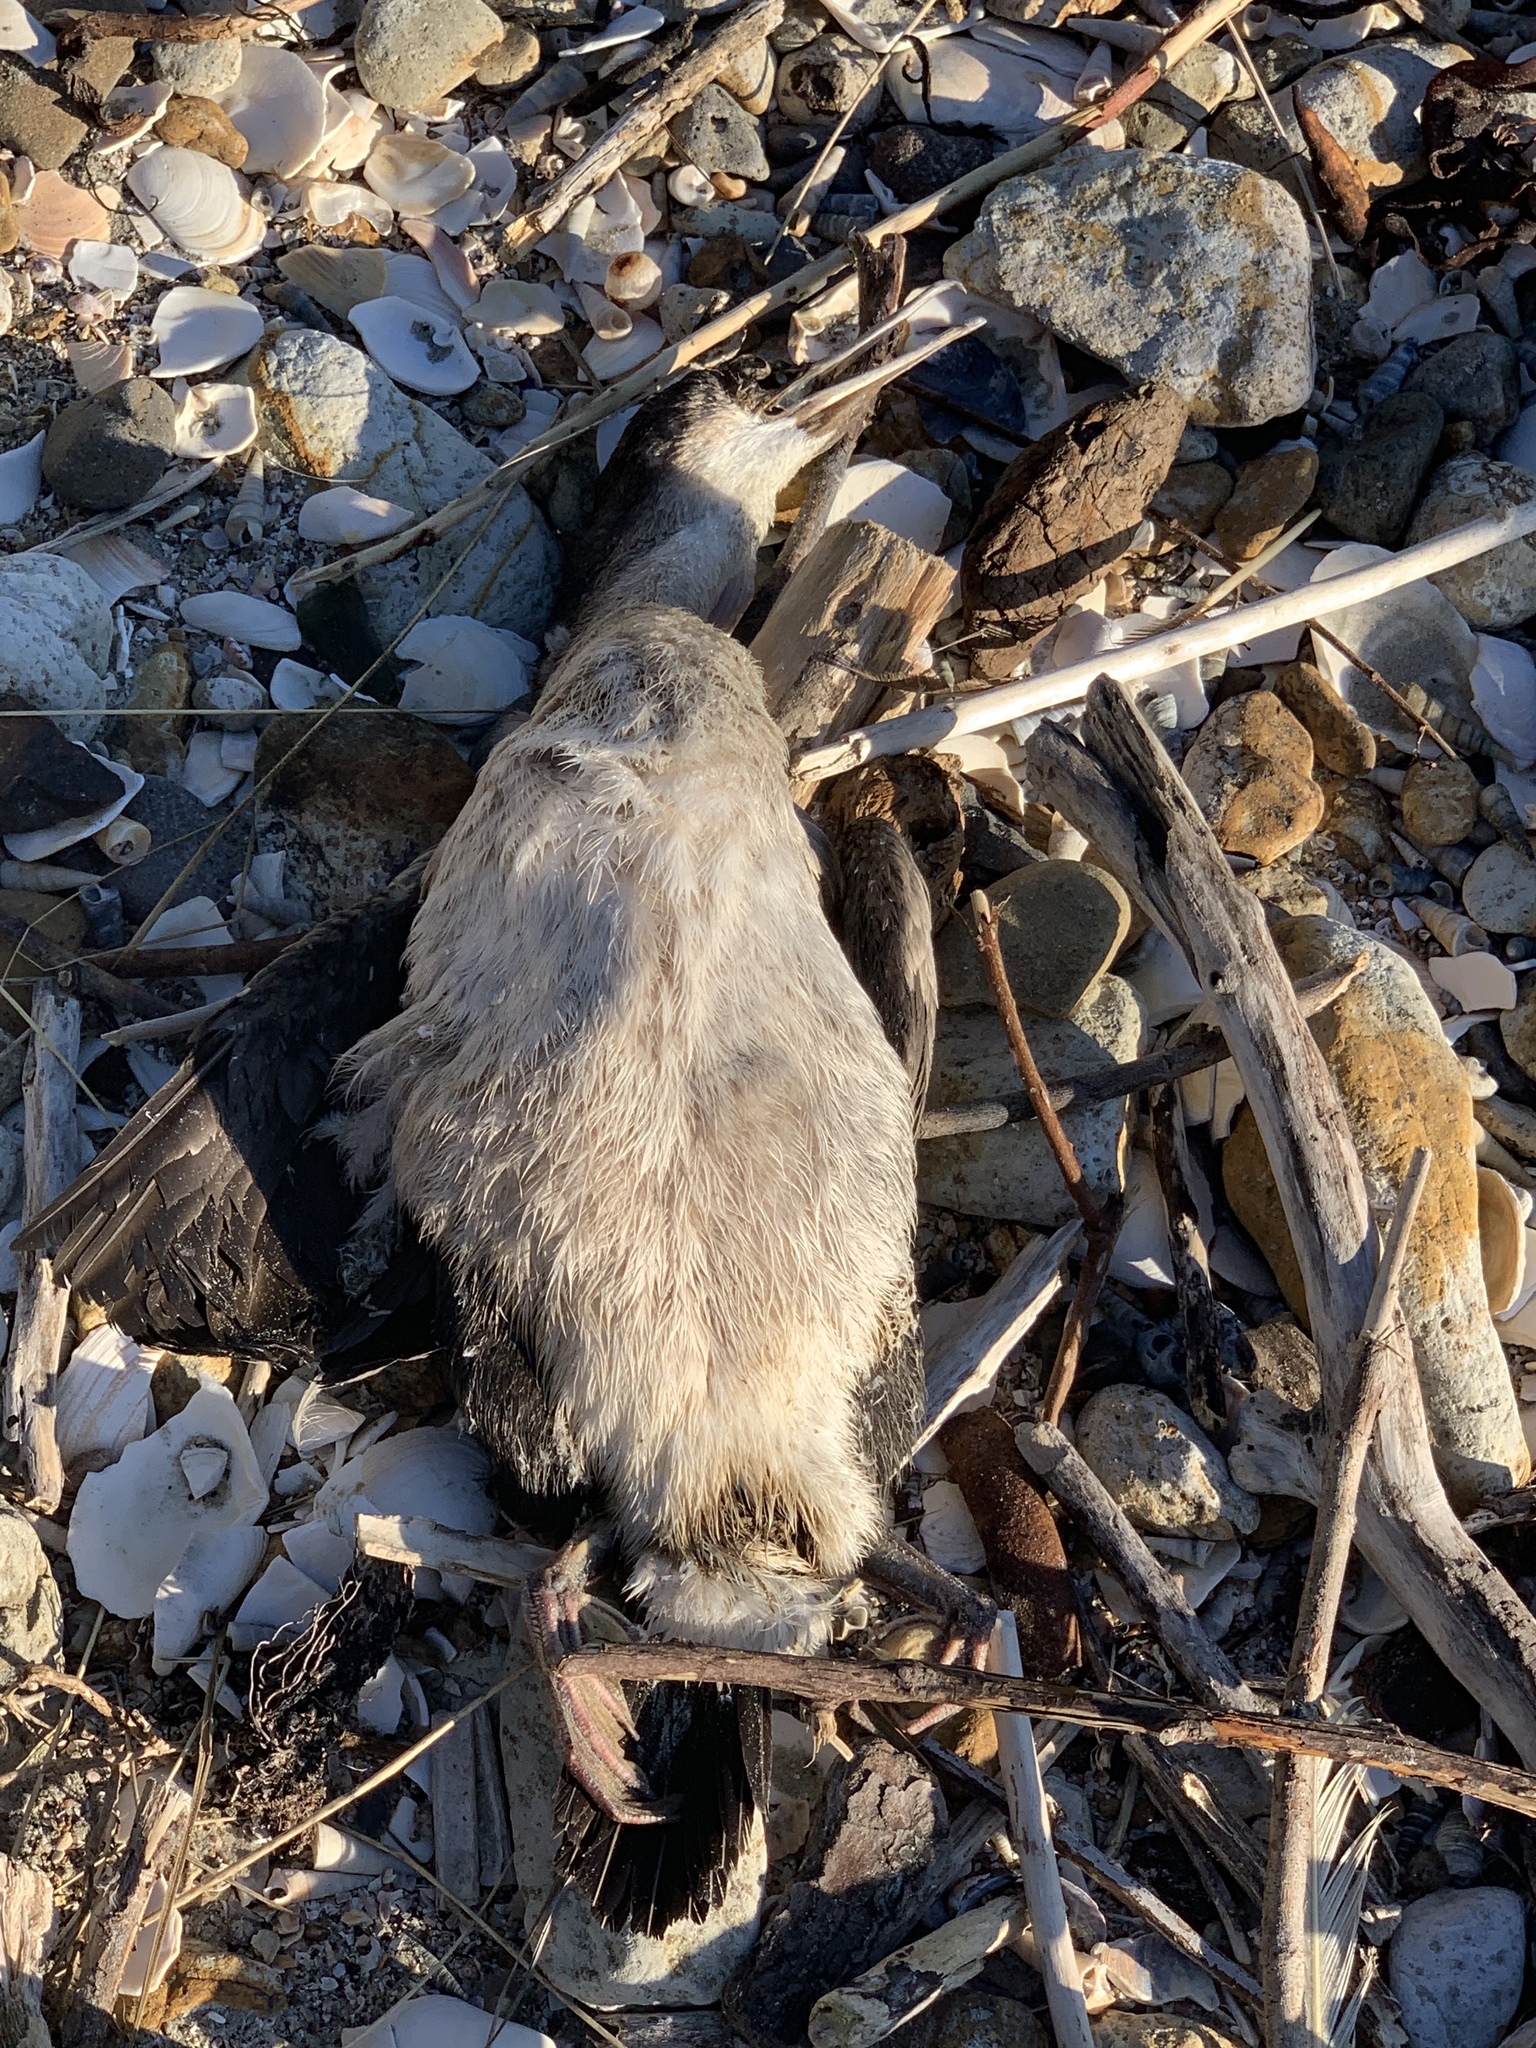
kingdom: Animalia
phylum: Chordata
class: Aves
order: Suliformes
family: Phalacrocoracidae
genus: Phalacrocorax
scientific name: Phalacrocorax punctatus
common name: Spotted shag
